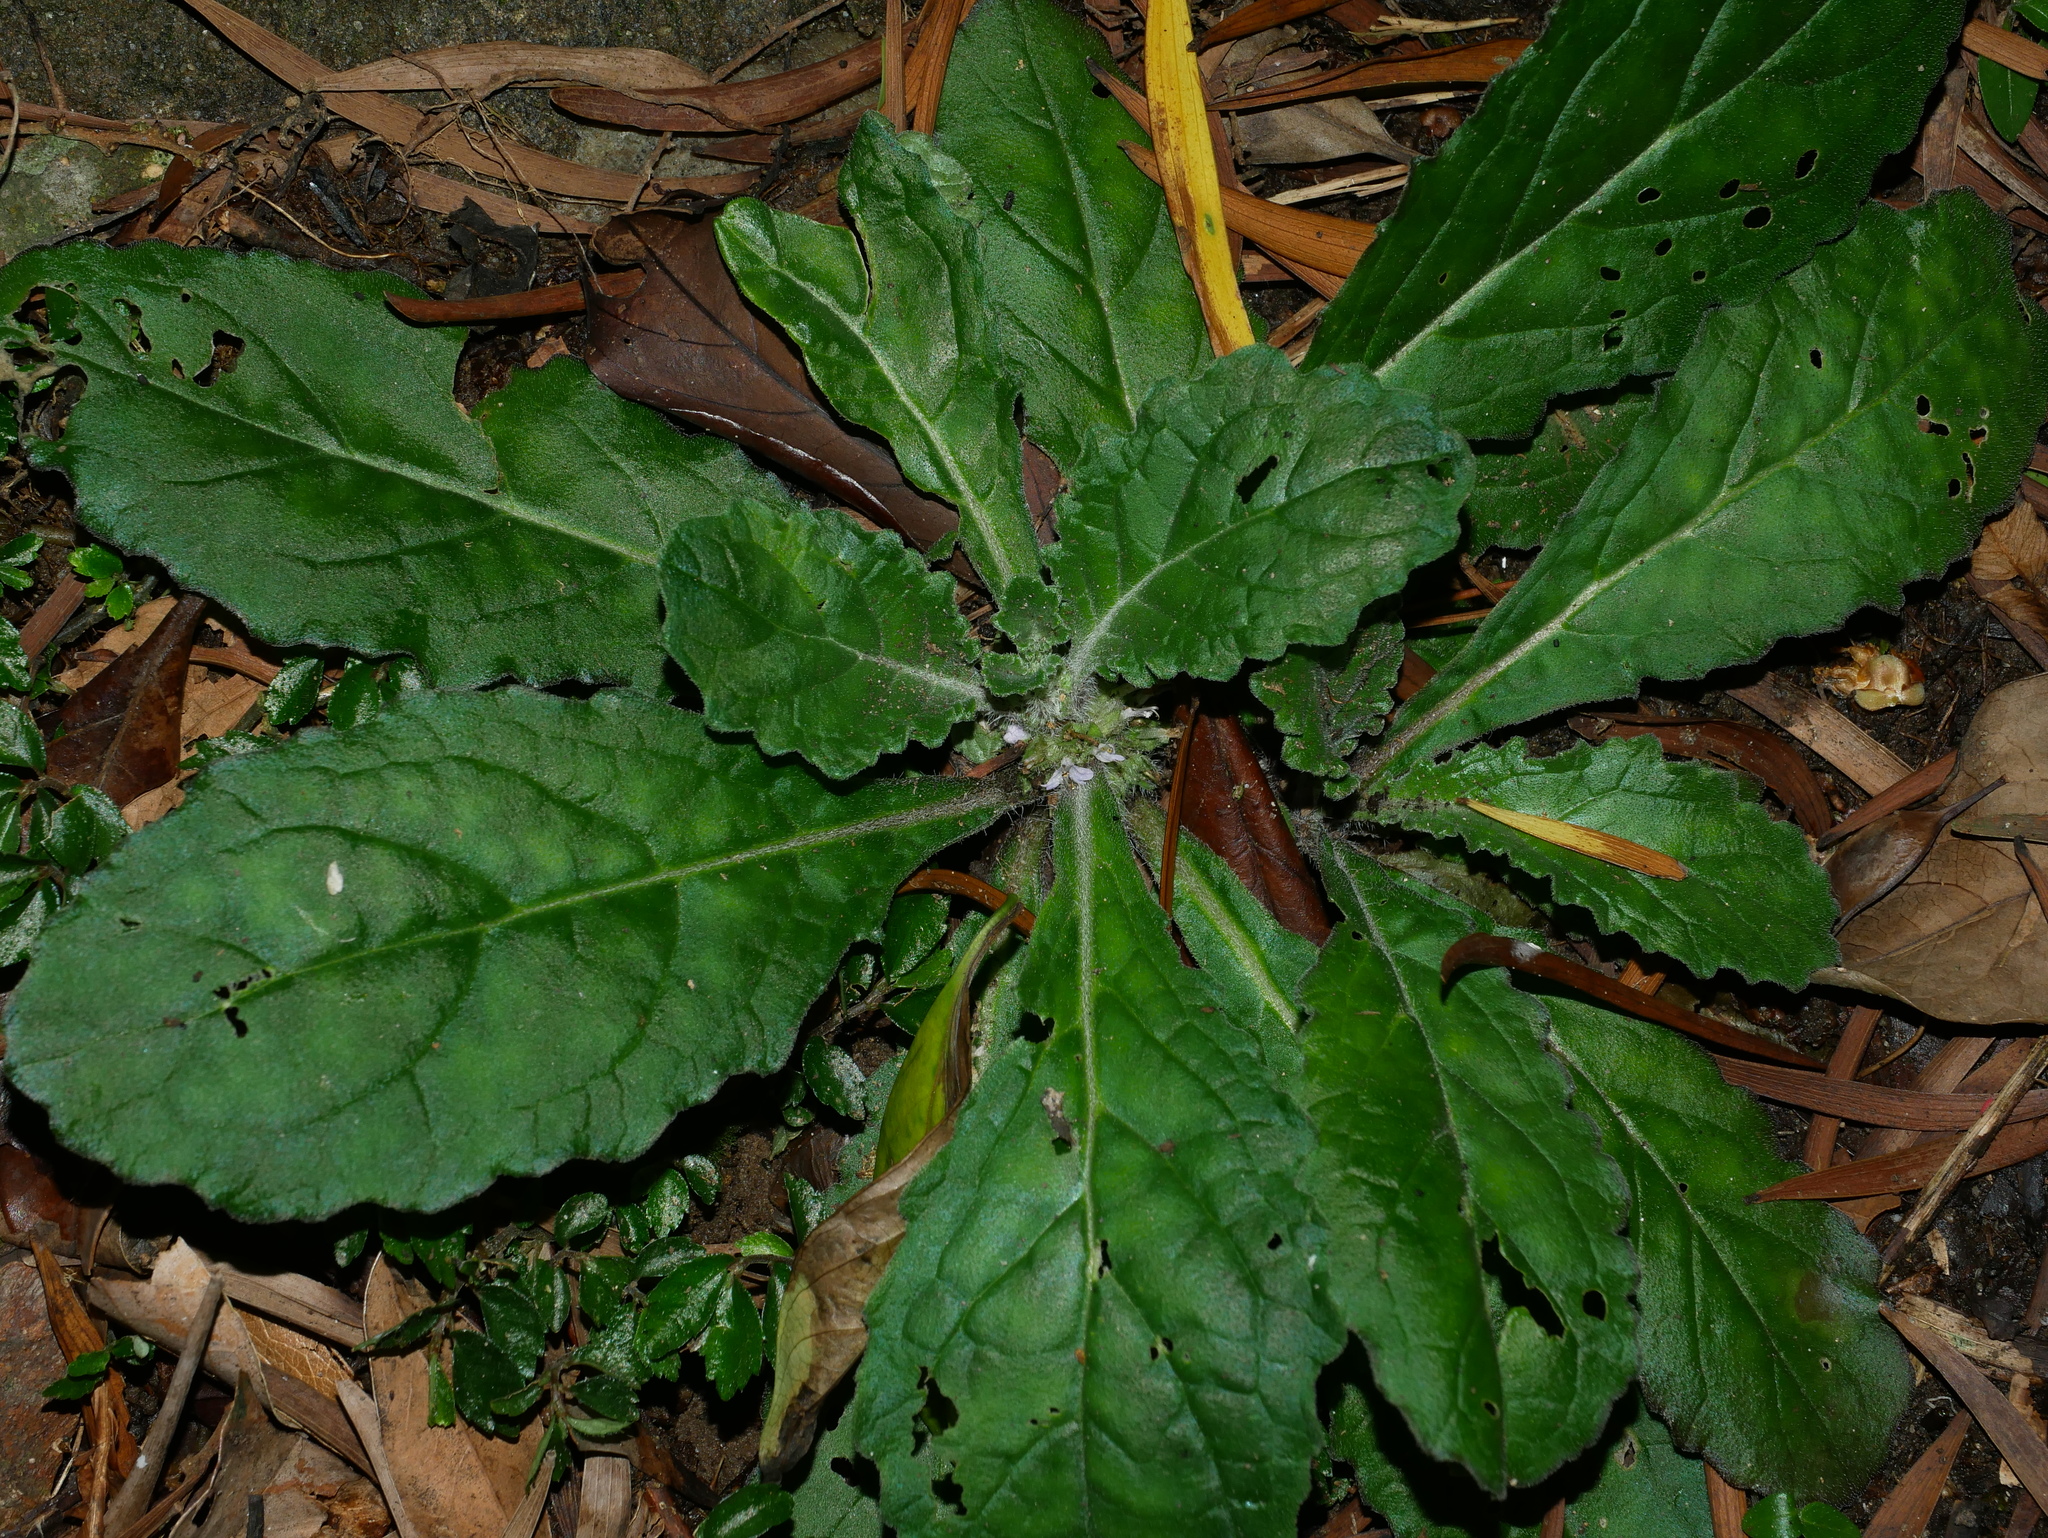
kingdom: Plantae
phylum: Tracheophyta
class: Magnoliopsida
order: Lamiales
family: Lamiaceae
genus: Ajuga
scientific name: Ajuga taiwanensis
